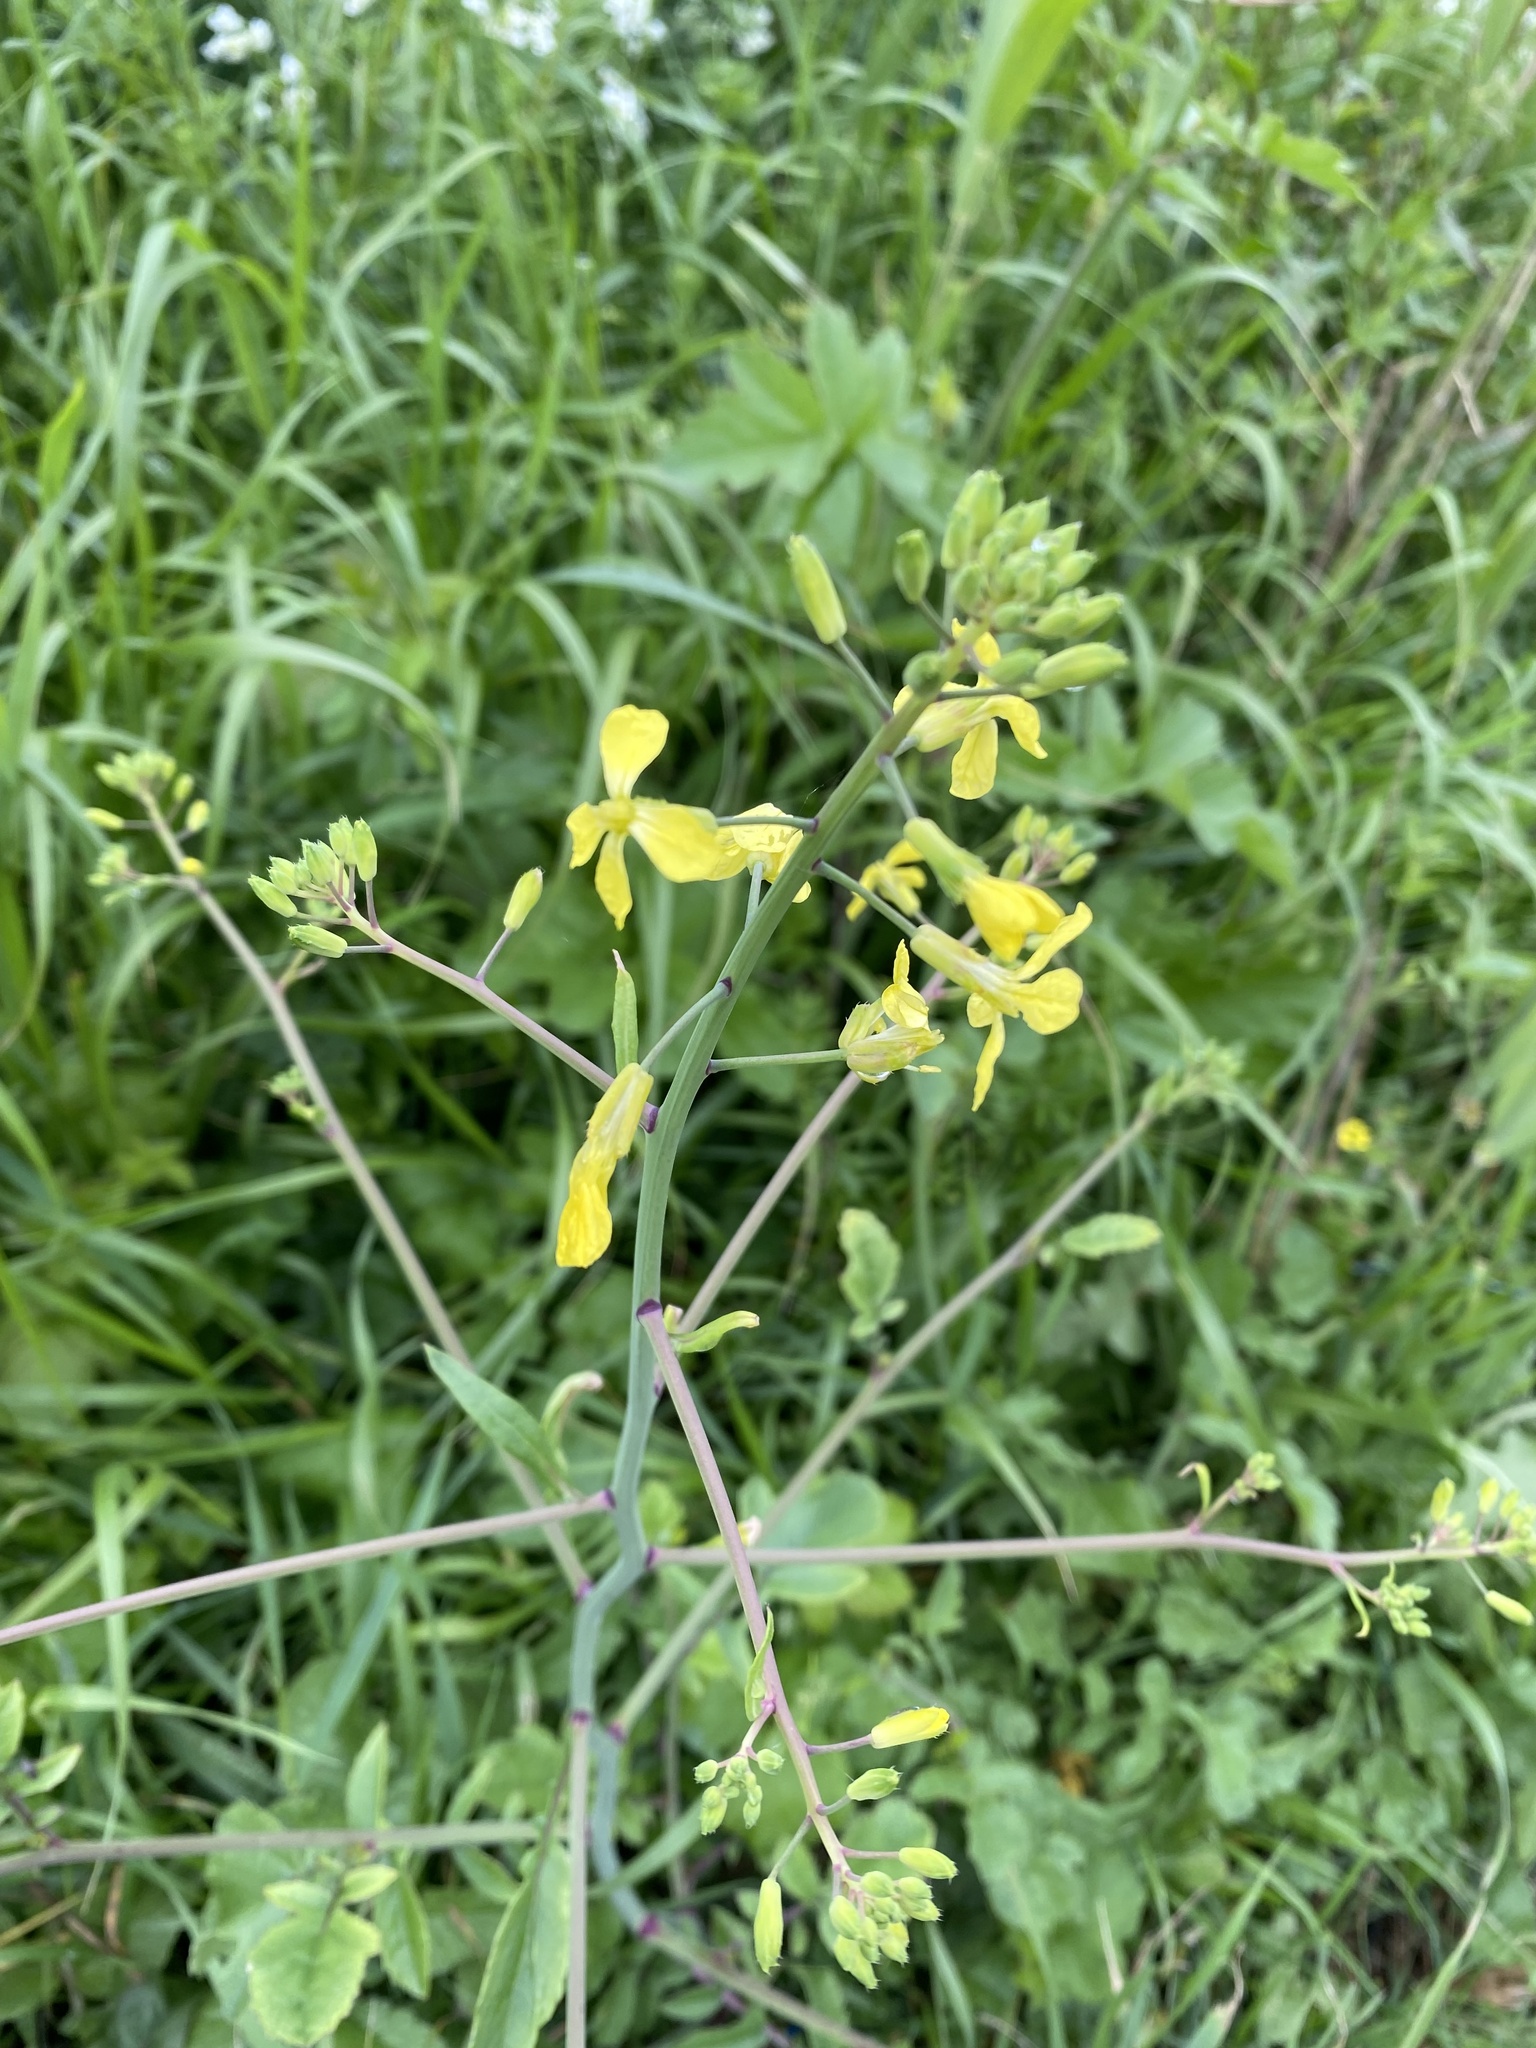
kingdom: Plantae
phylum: Tracheophyta
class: Magnoliopsida
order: Brassicales
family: Brassicaceae
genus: Raphanus
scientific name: Raphanus raphanistrum
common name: Wild radish
